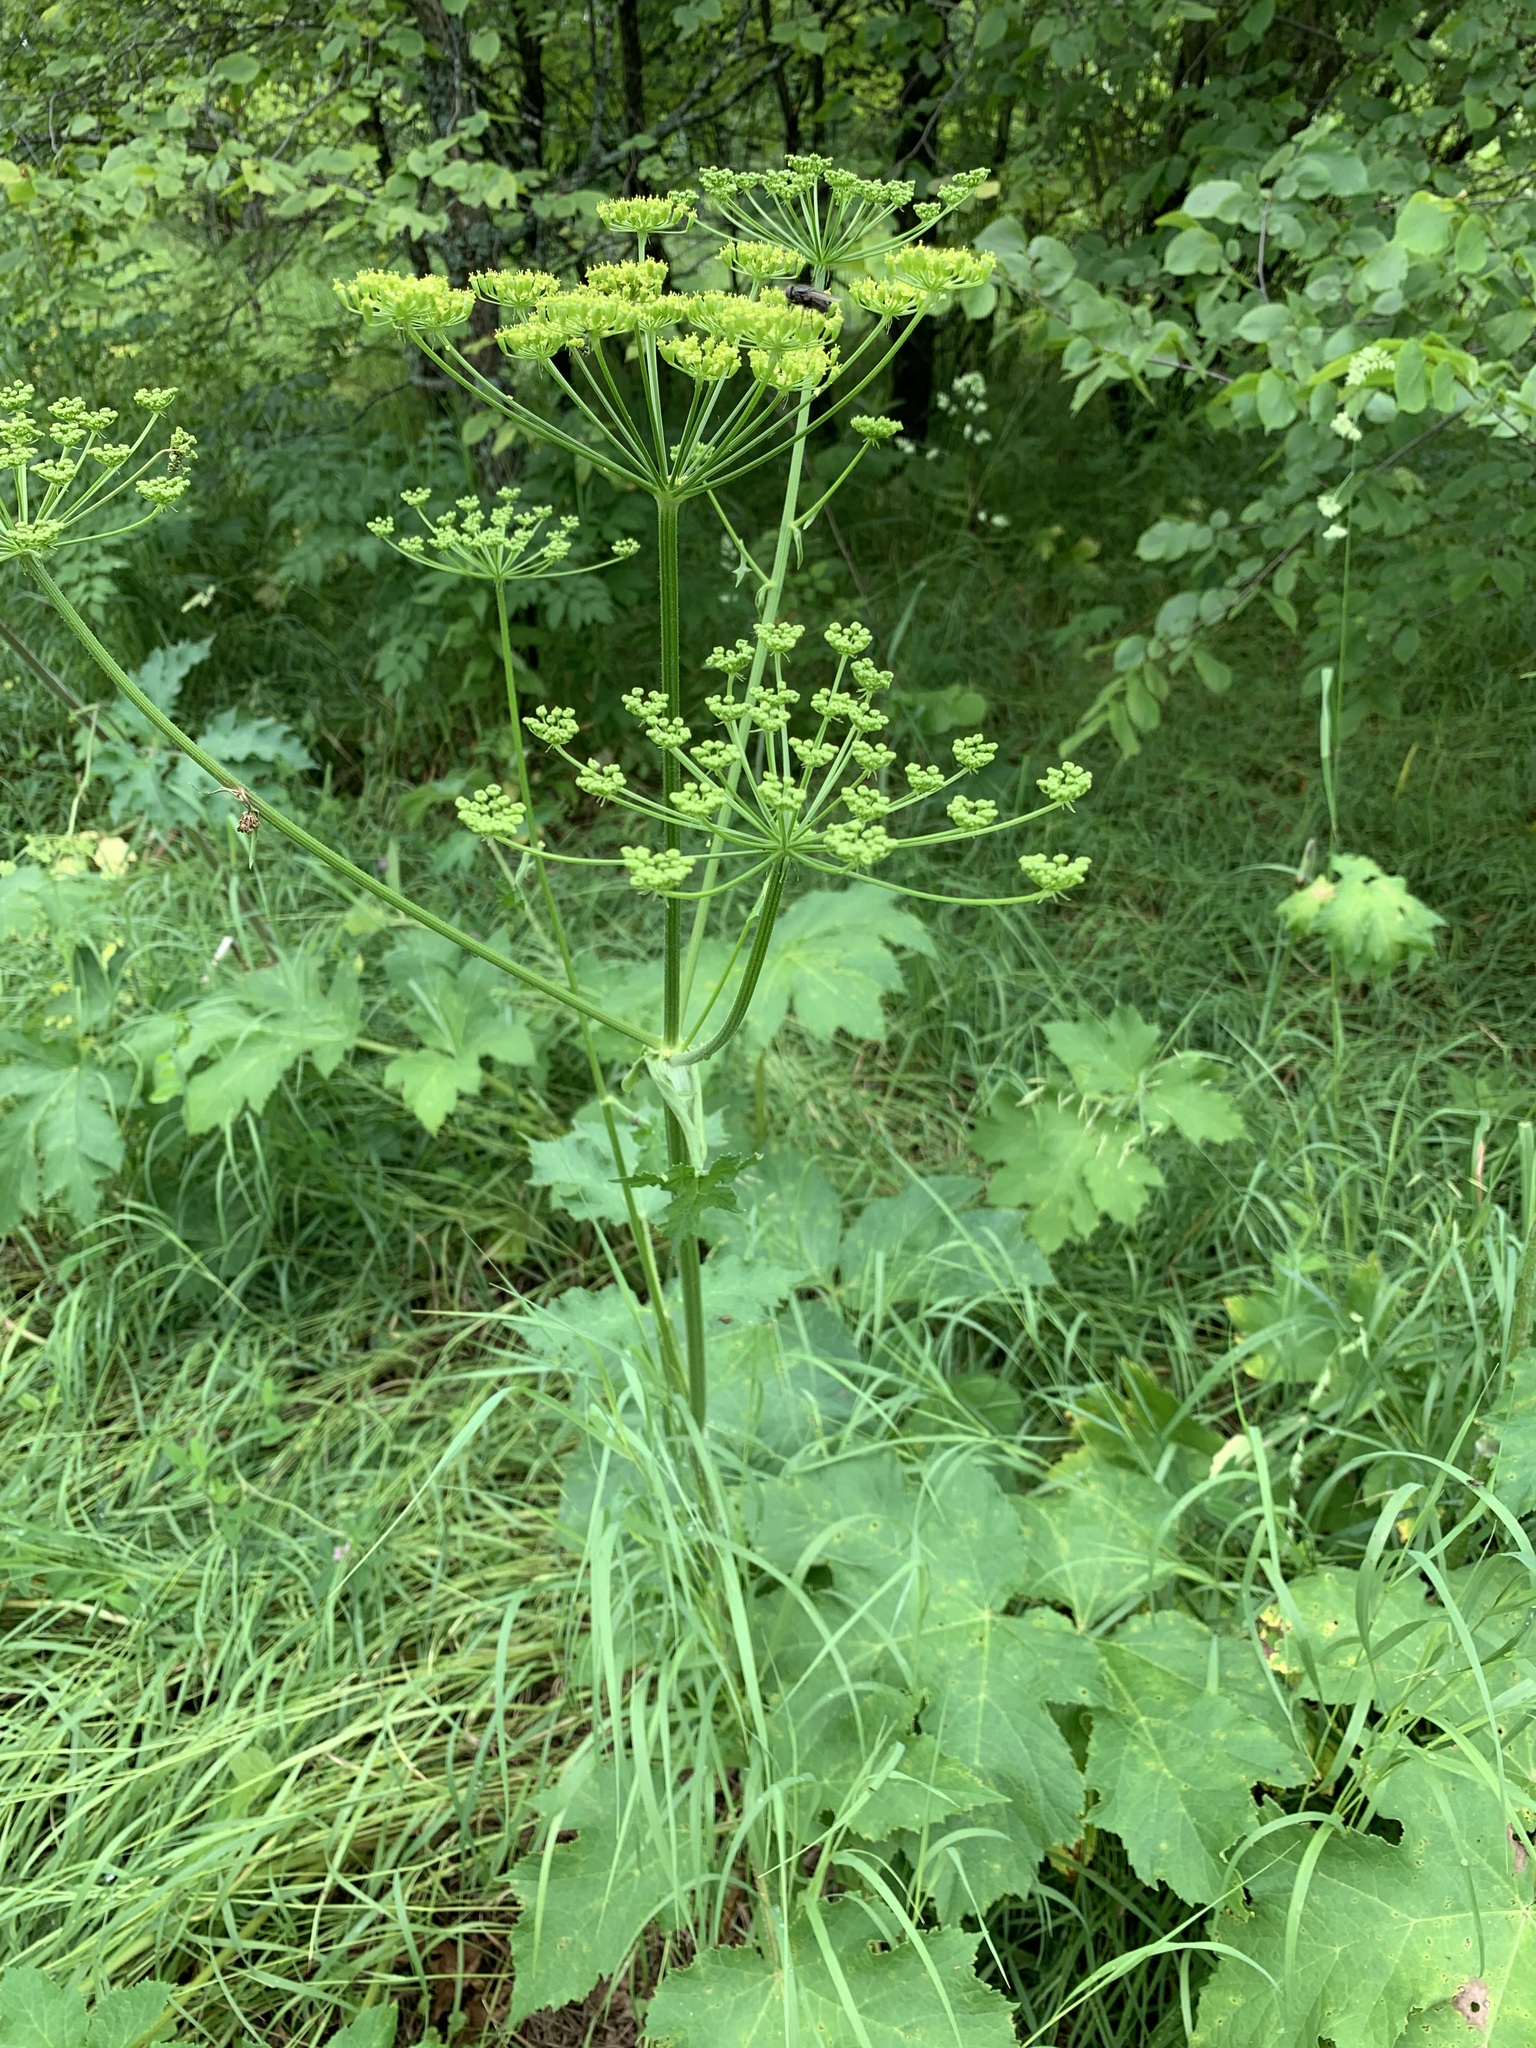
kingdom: Plantae
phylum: Tracheophyta
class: Magnoliopsida
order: Apiales
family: Apiaceae
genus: Heracleum
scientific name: Heracleum sphondylium
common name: Hogweed
